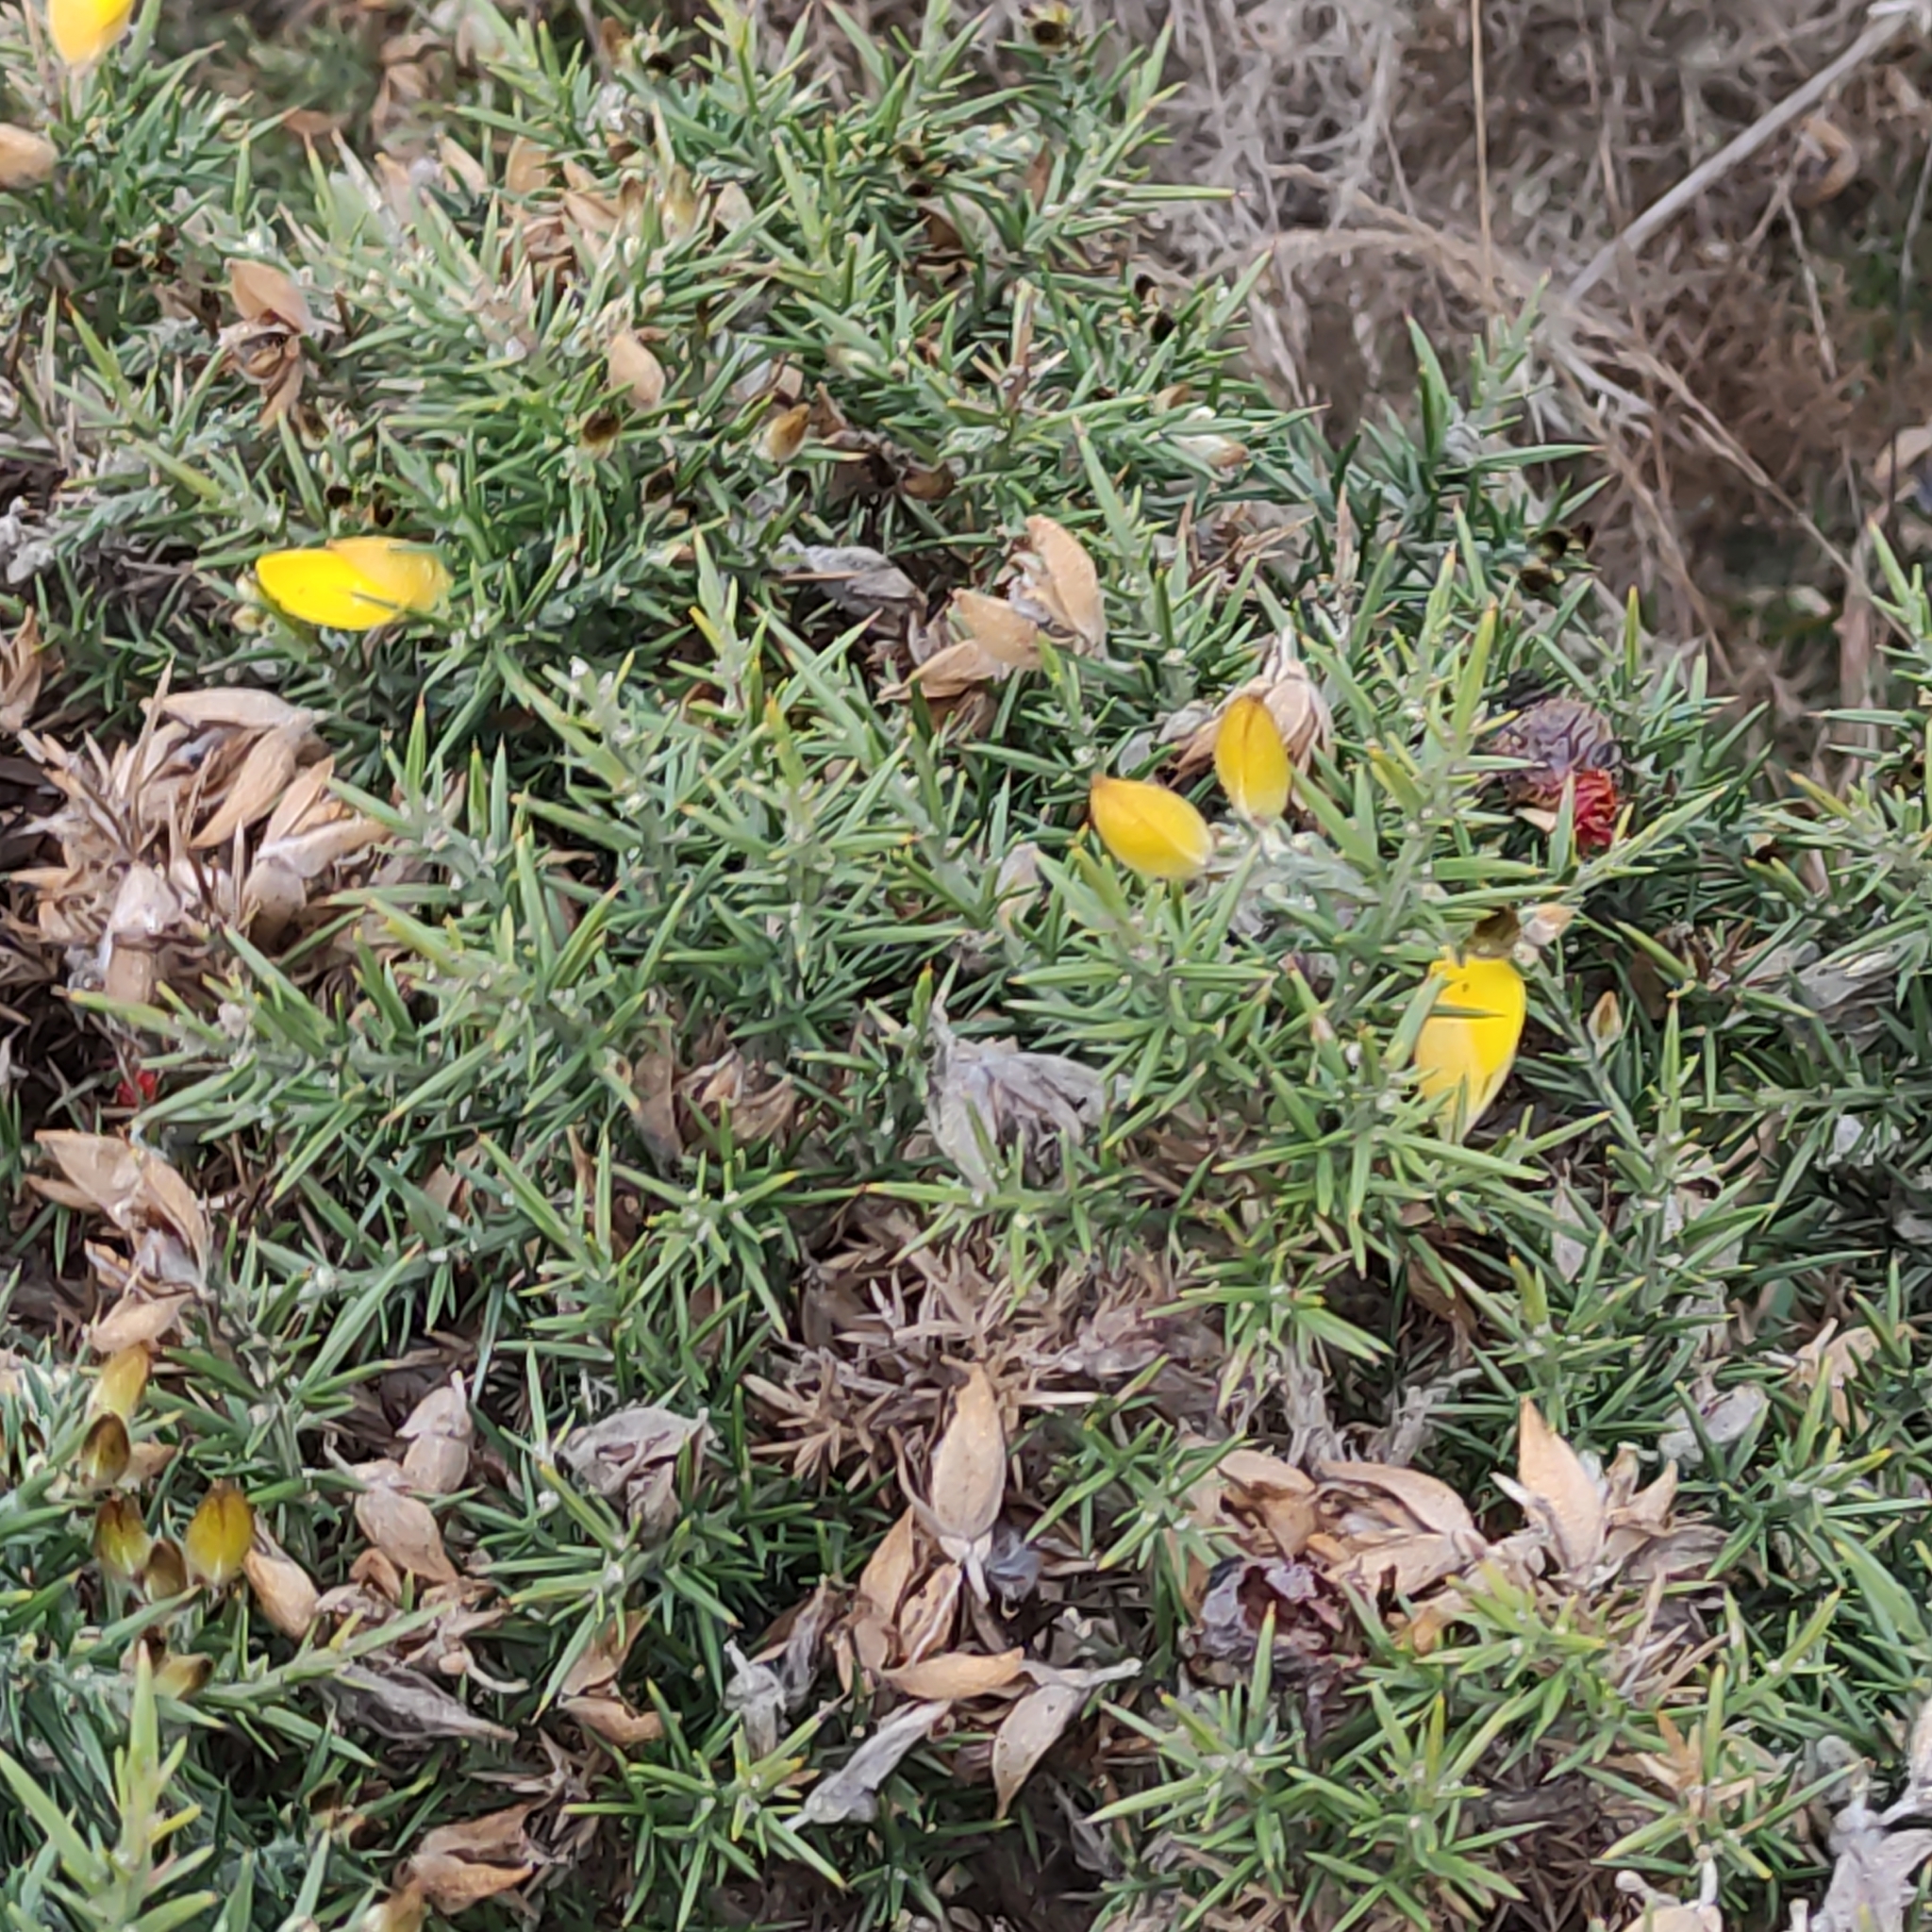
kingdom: Plantae
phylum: Tracheophyta
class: Magnoliopsida
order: Fabales
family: Fabaceae
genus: Ulex
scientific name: Ulex europaeus
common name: Common gorse
